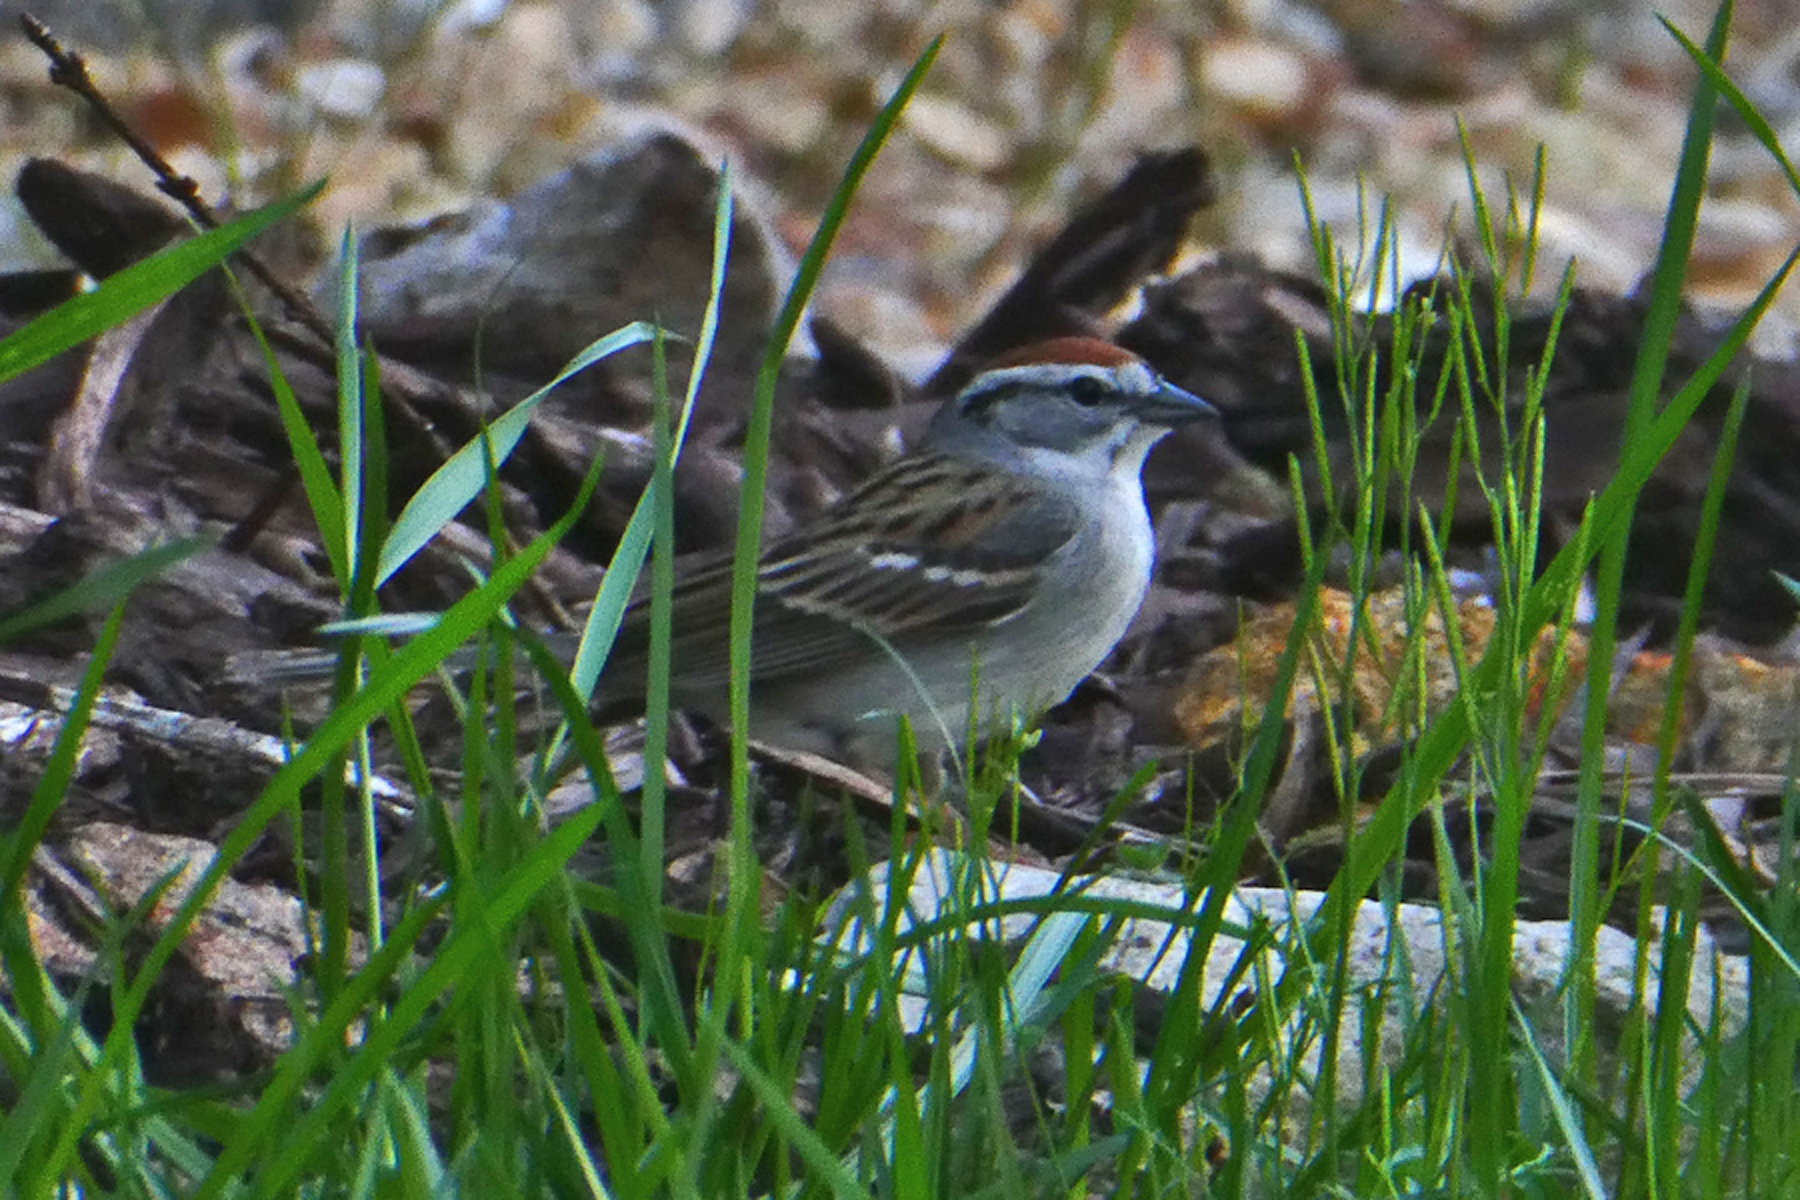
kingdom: Animalia
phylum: Chordata
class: Aves
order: Passeriformes
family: Passerellidae
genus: Spizella
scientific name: Spizella passerina
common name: Chipping sparrow
